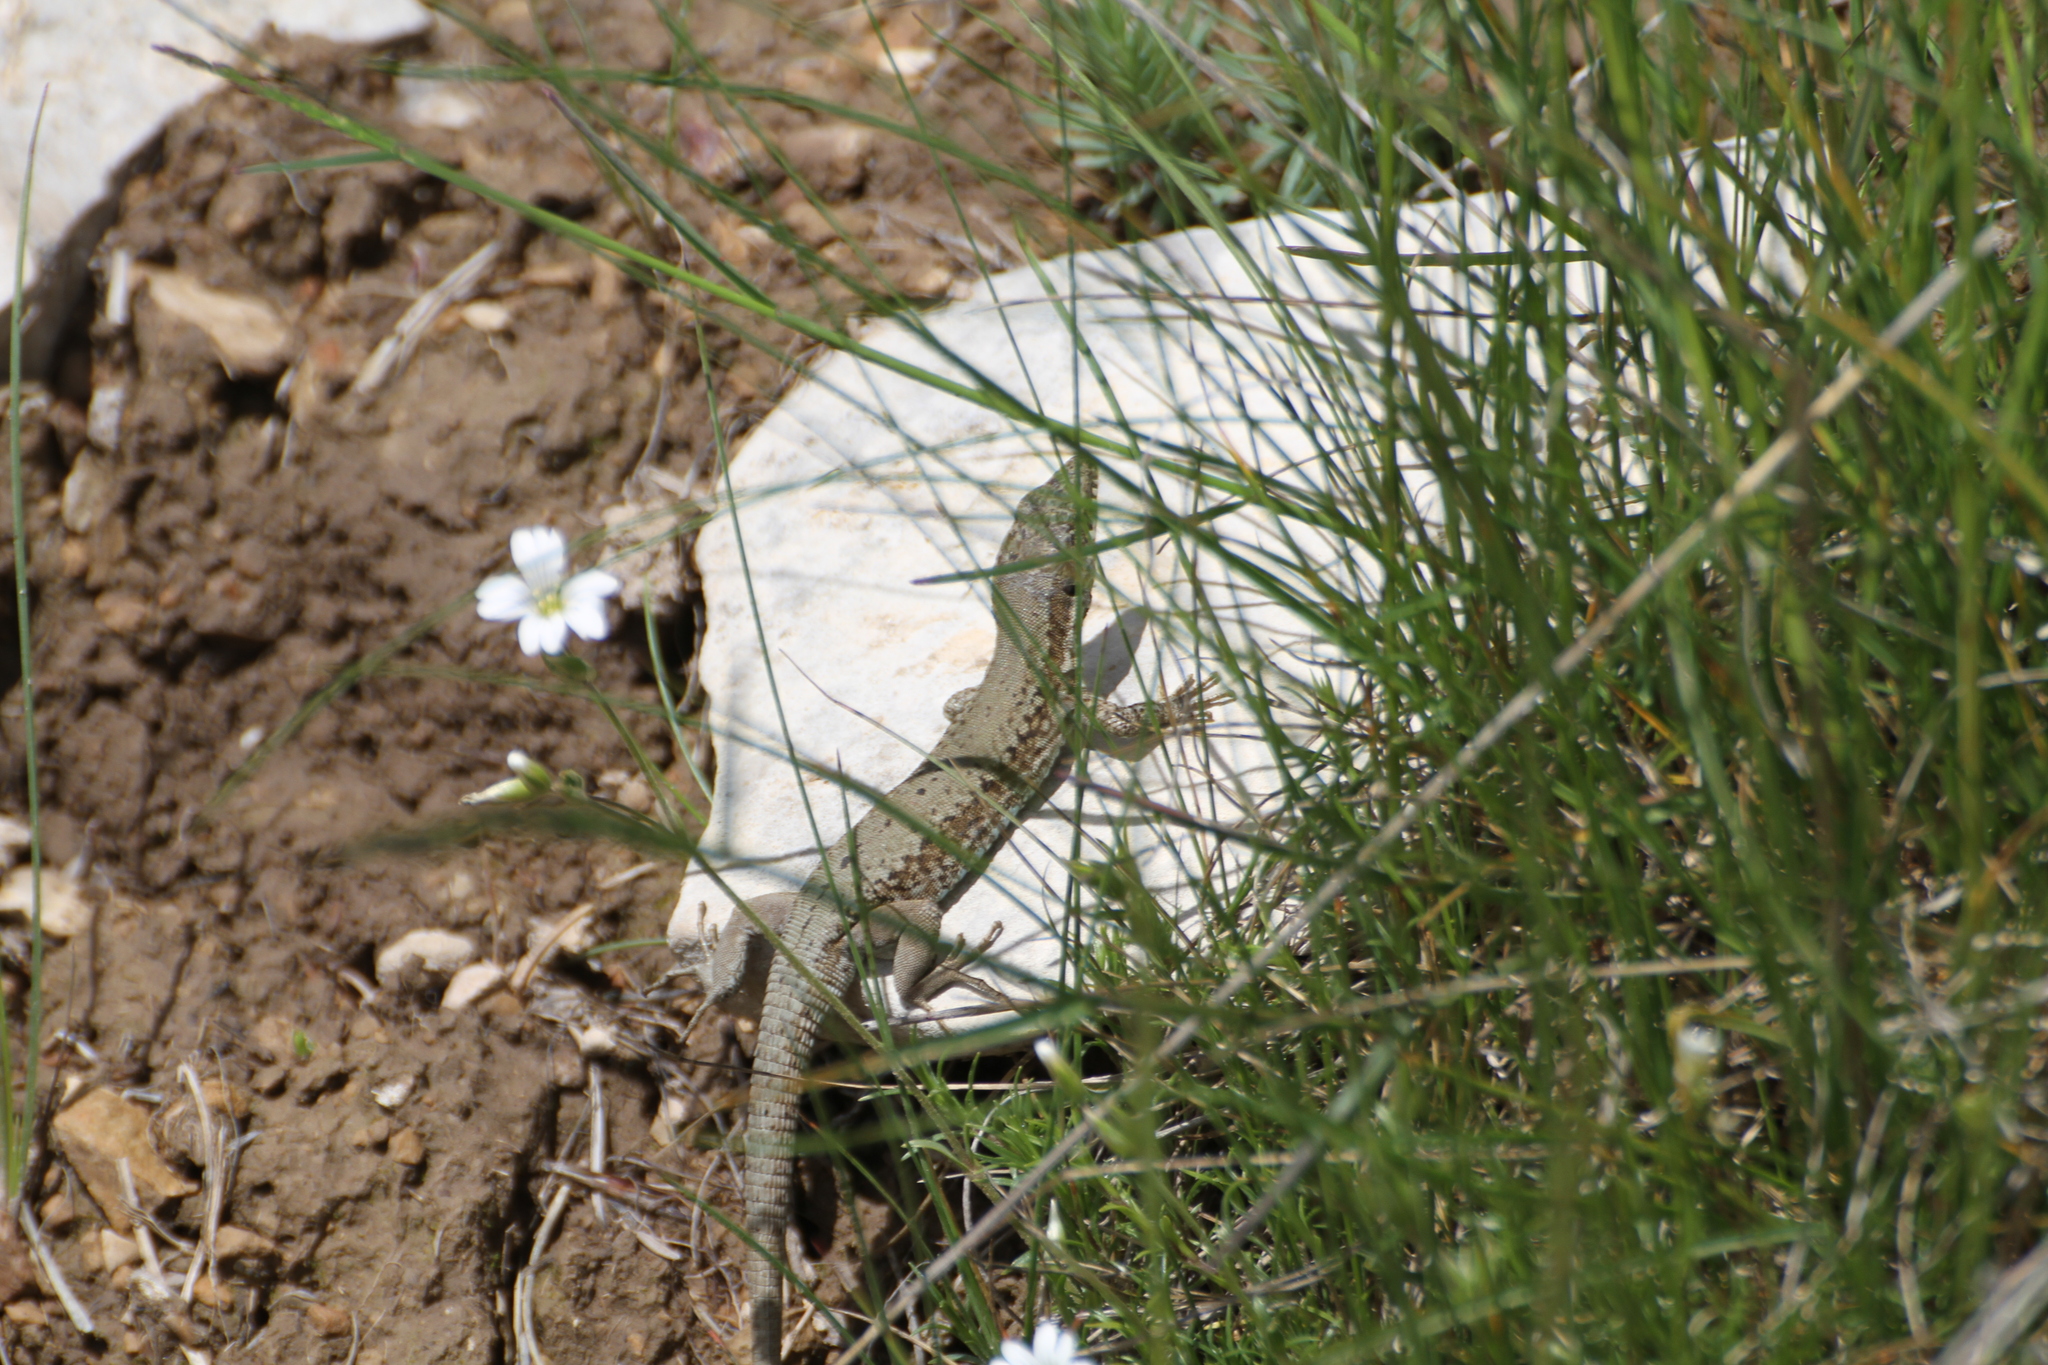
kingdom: Animalia
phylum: Chordata
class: Squamata
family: Lacertidae
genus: Podarcis
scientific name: Podarcis muralis
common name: Common wall lizard
